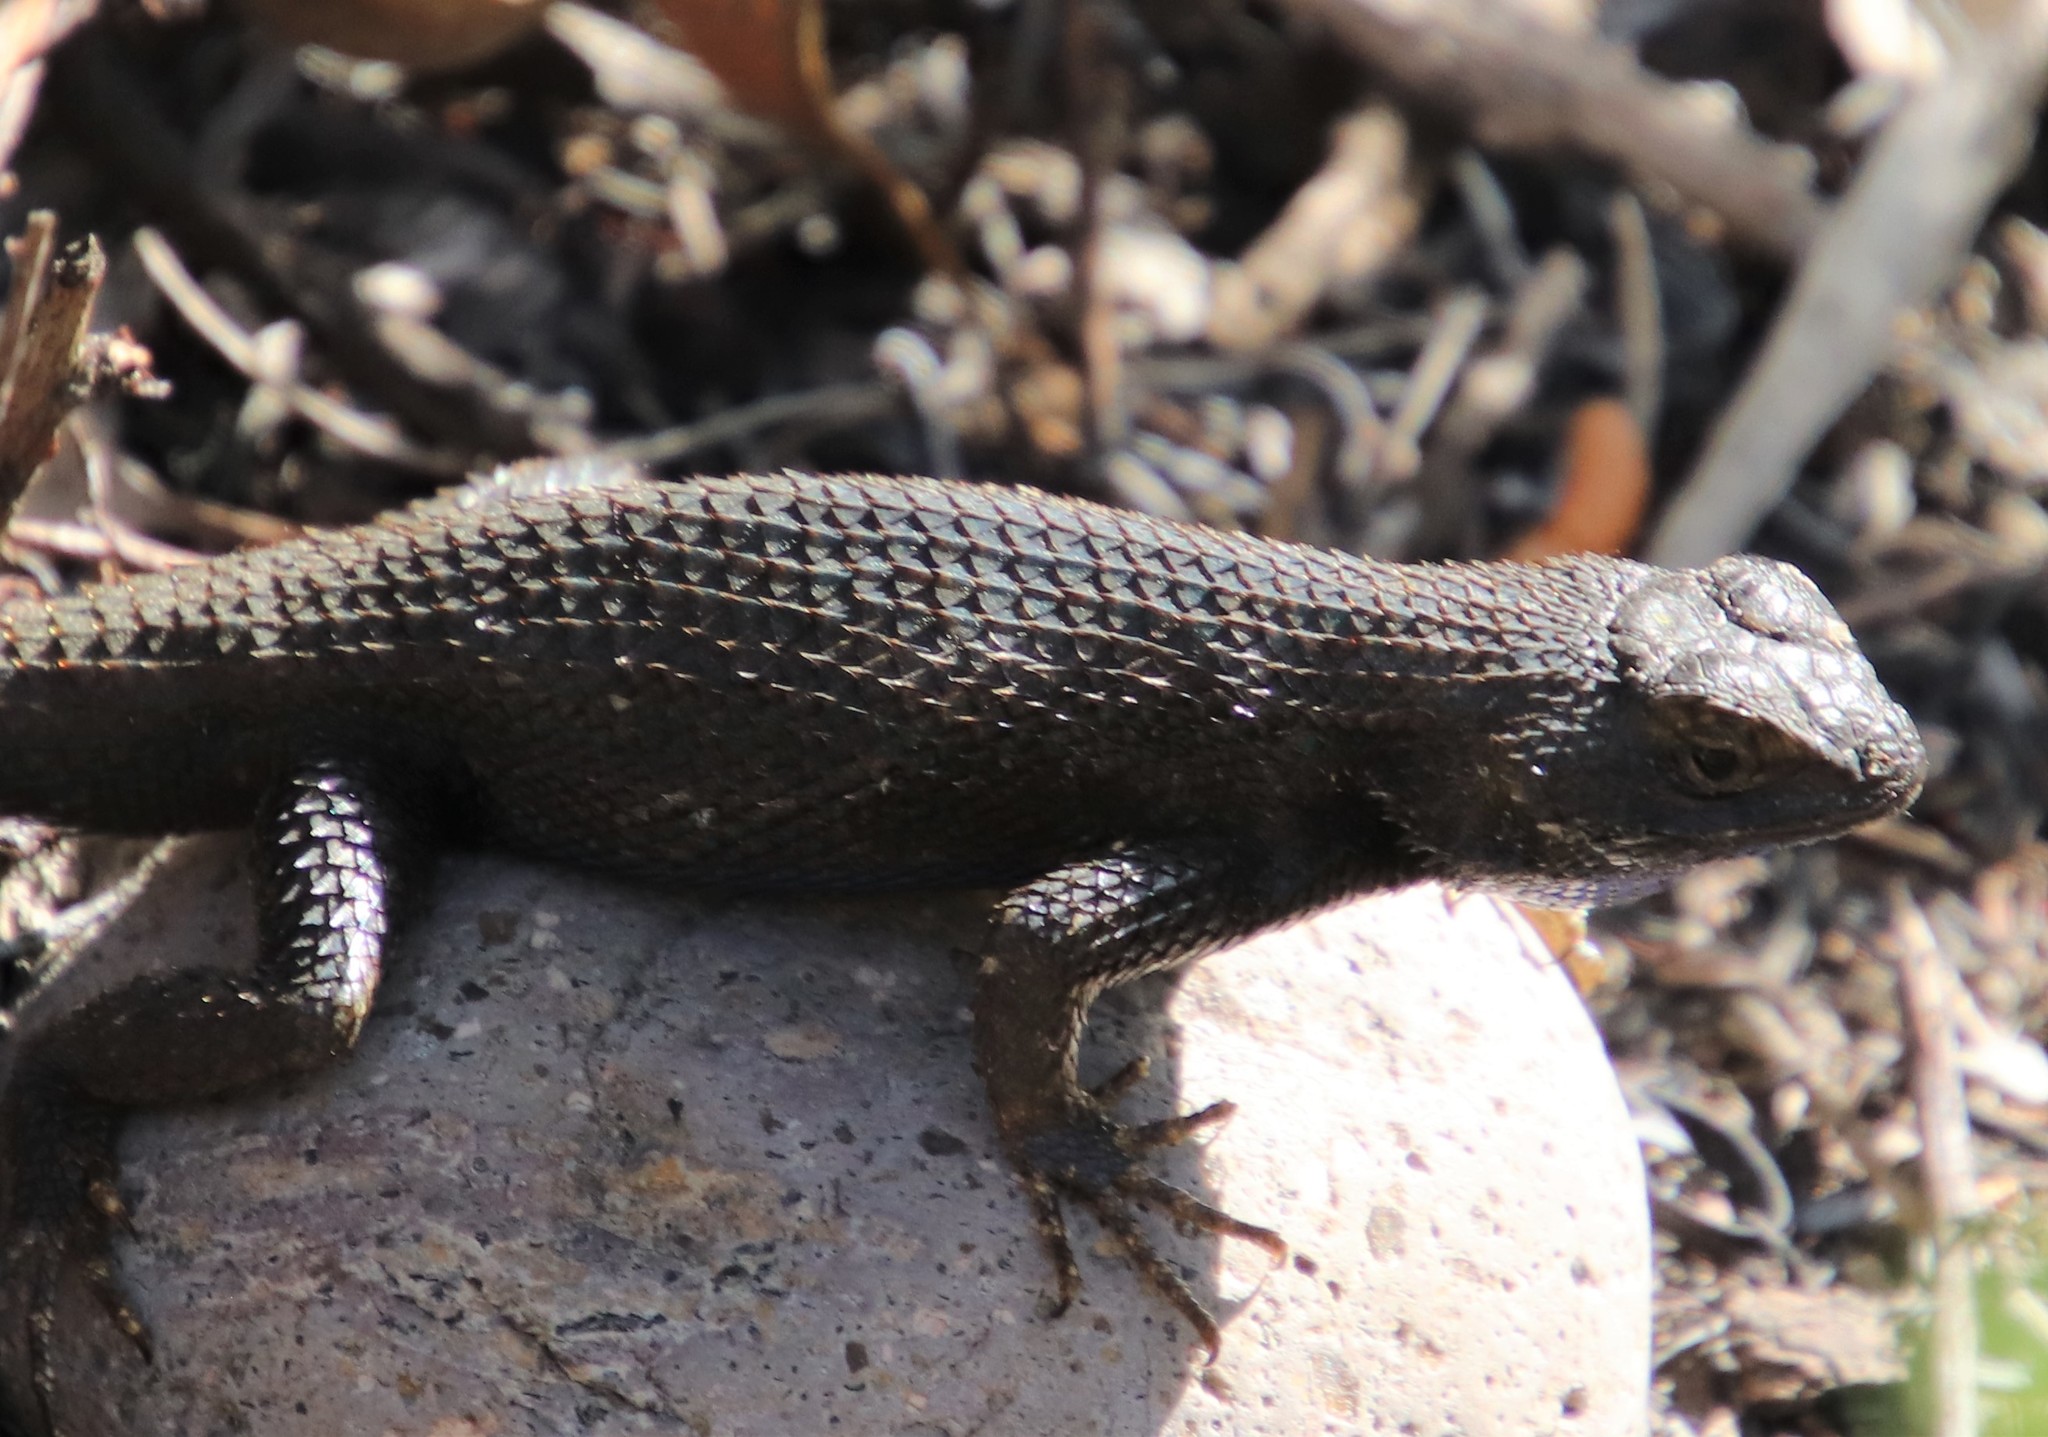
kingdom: Animalia
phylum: Chordata
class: Squamata
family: Phrynosomatidae
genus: Sceloporus
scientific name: Sceloporus occidentalis
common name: Western fence lizard
